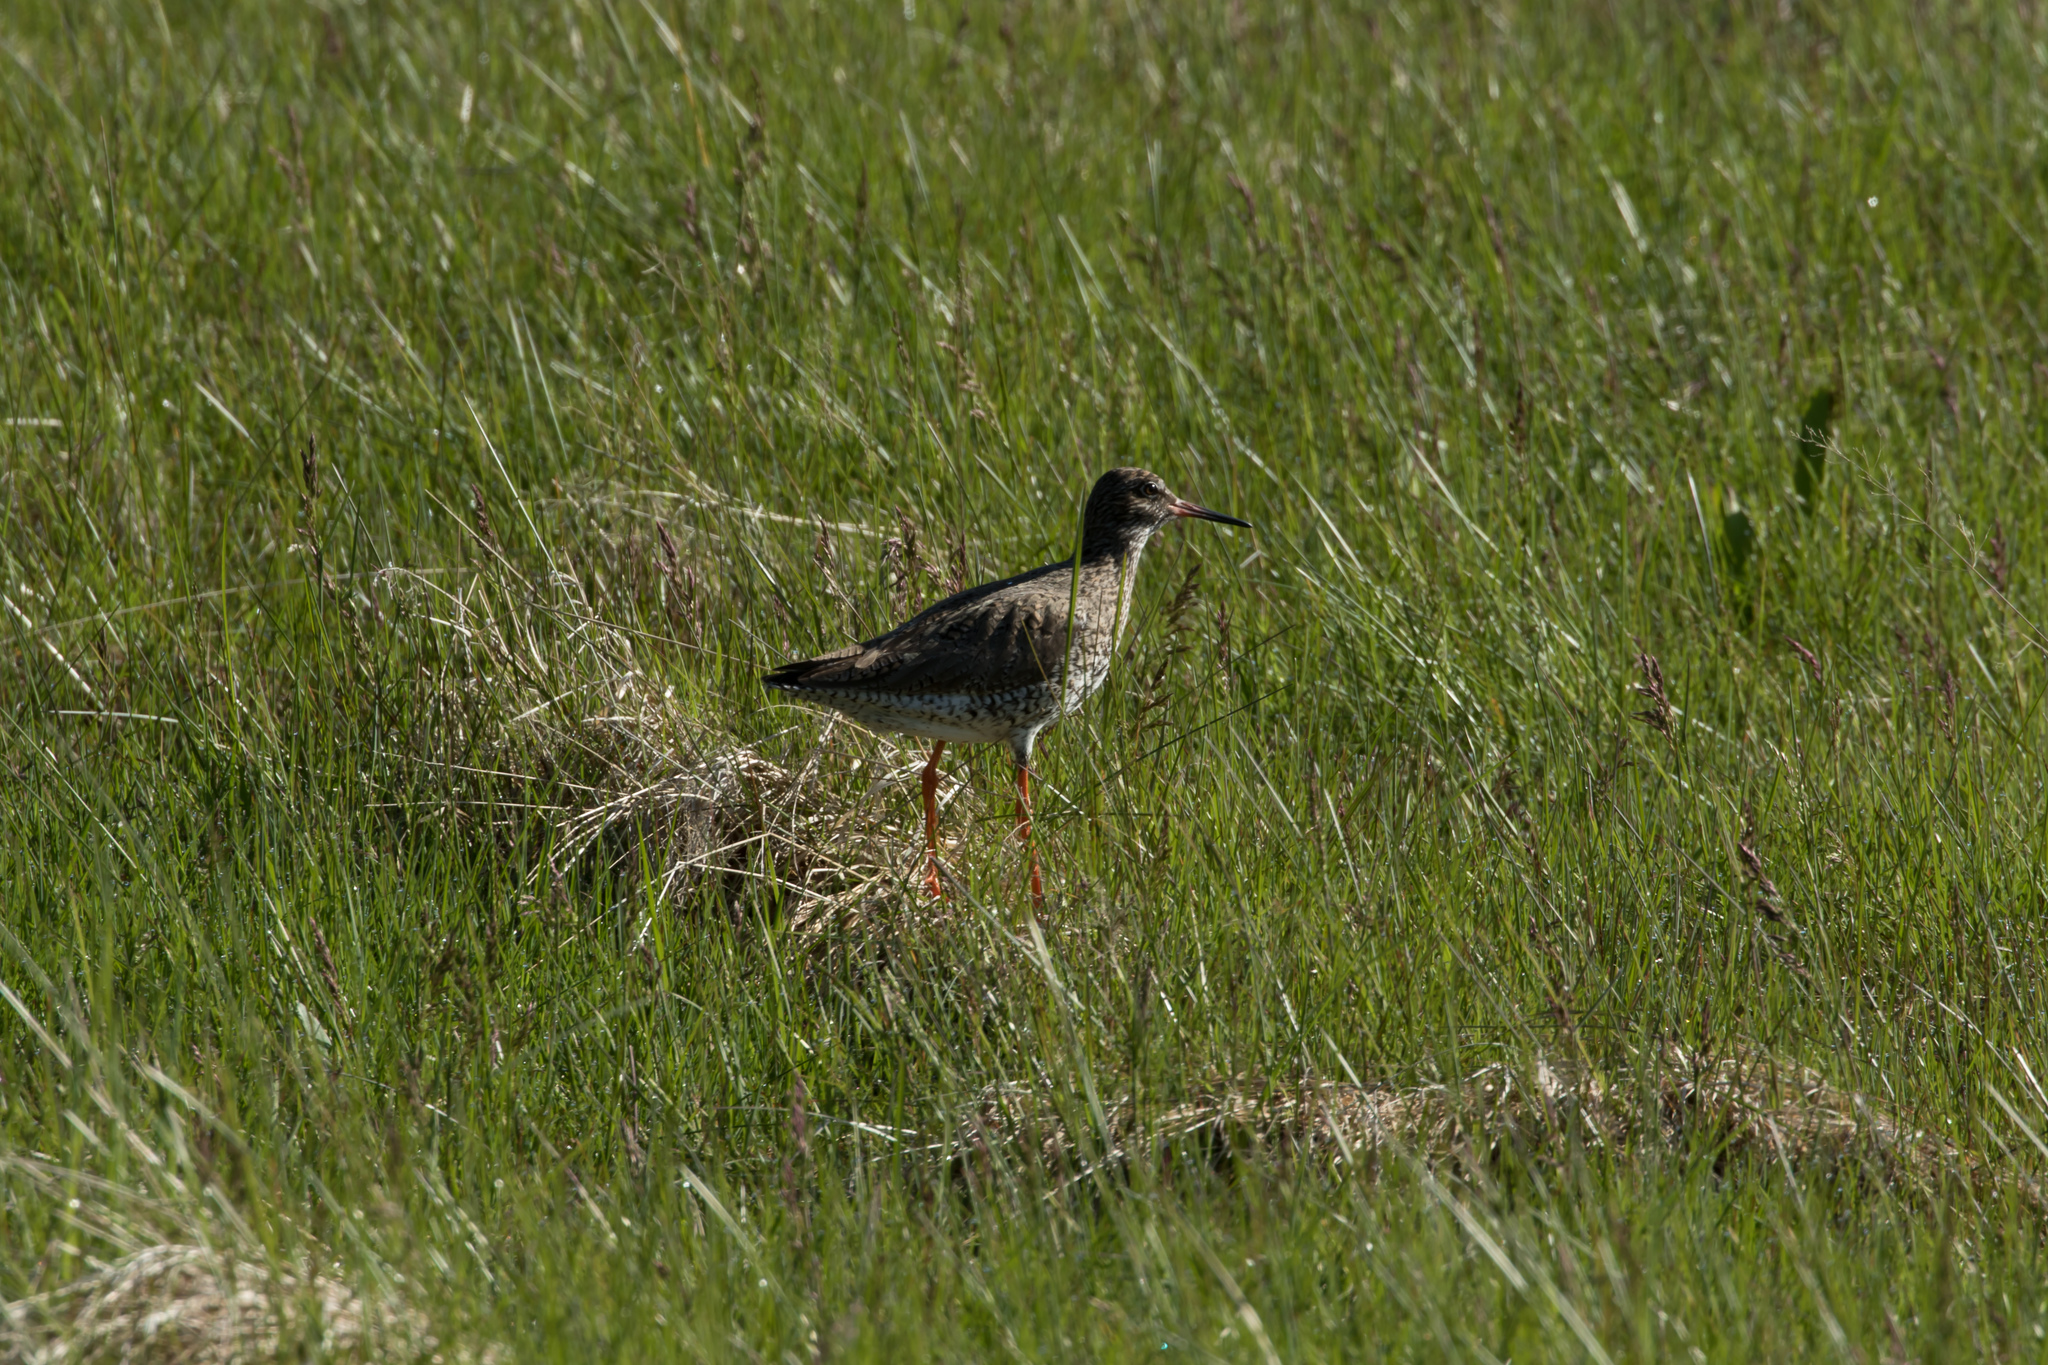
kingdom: Animalia
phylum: Chordata
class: Aves
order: Charadriiformes
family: Scolopacidae
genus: Tringa
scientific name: Tringa totanus
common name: Common redshank
